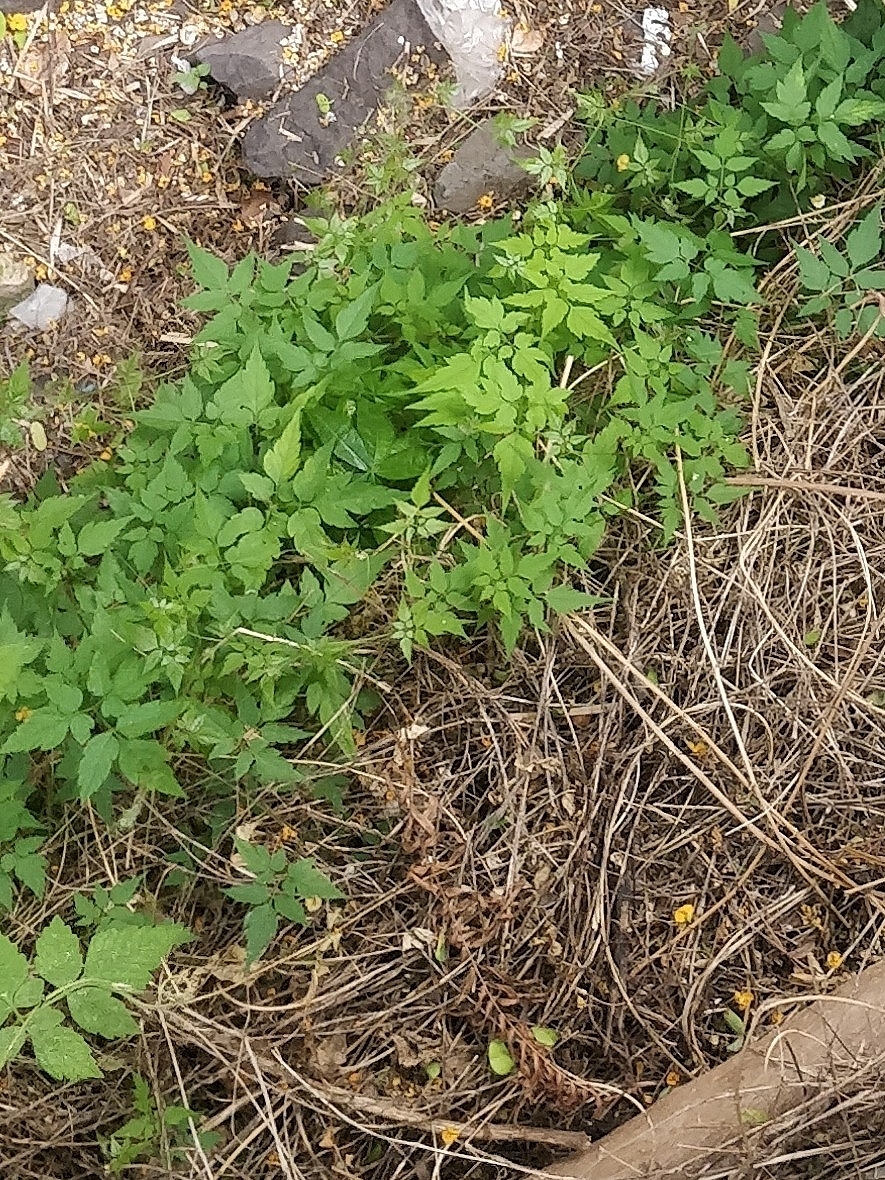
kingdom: Plantae
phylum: Tracheophyta
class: Magnoliopsida
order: Sapindales
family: Sapindaceae
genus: Cardiospermum
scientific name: Cardiospermum grandiflorum
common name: Balloon vine
